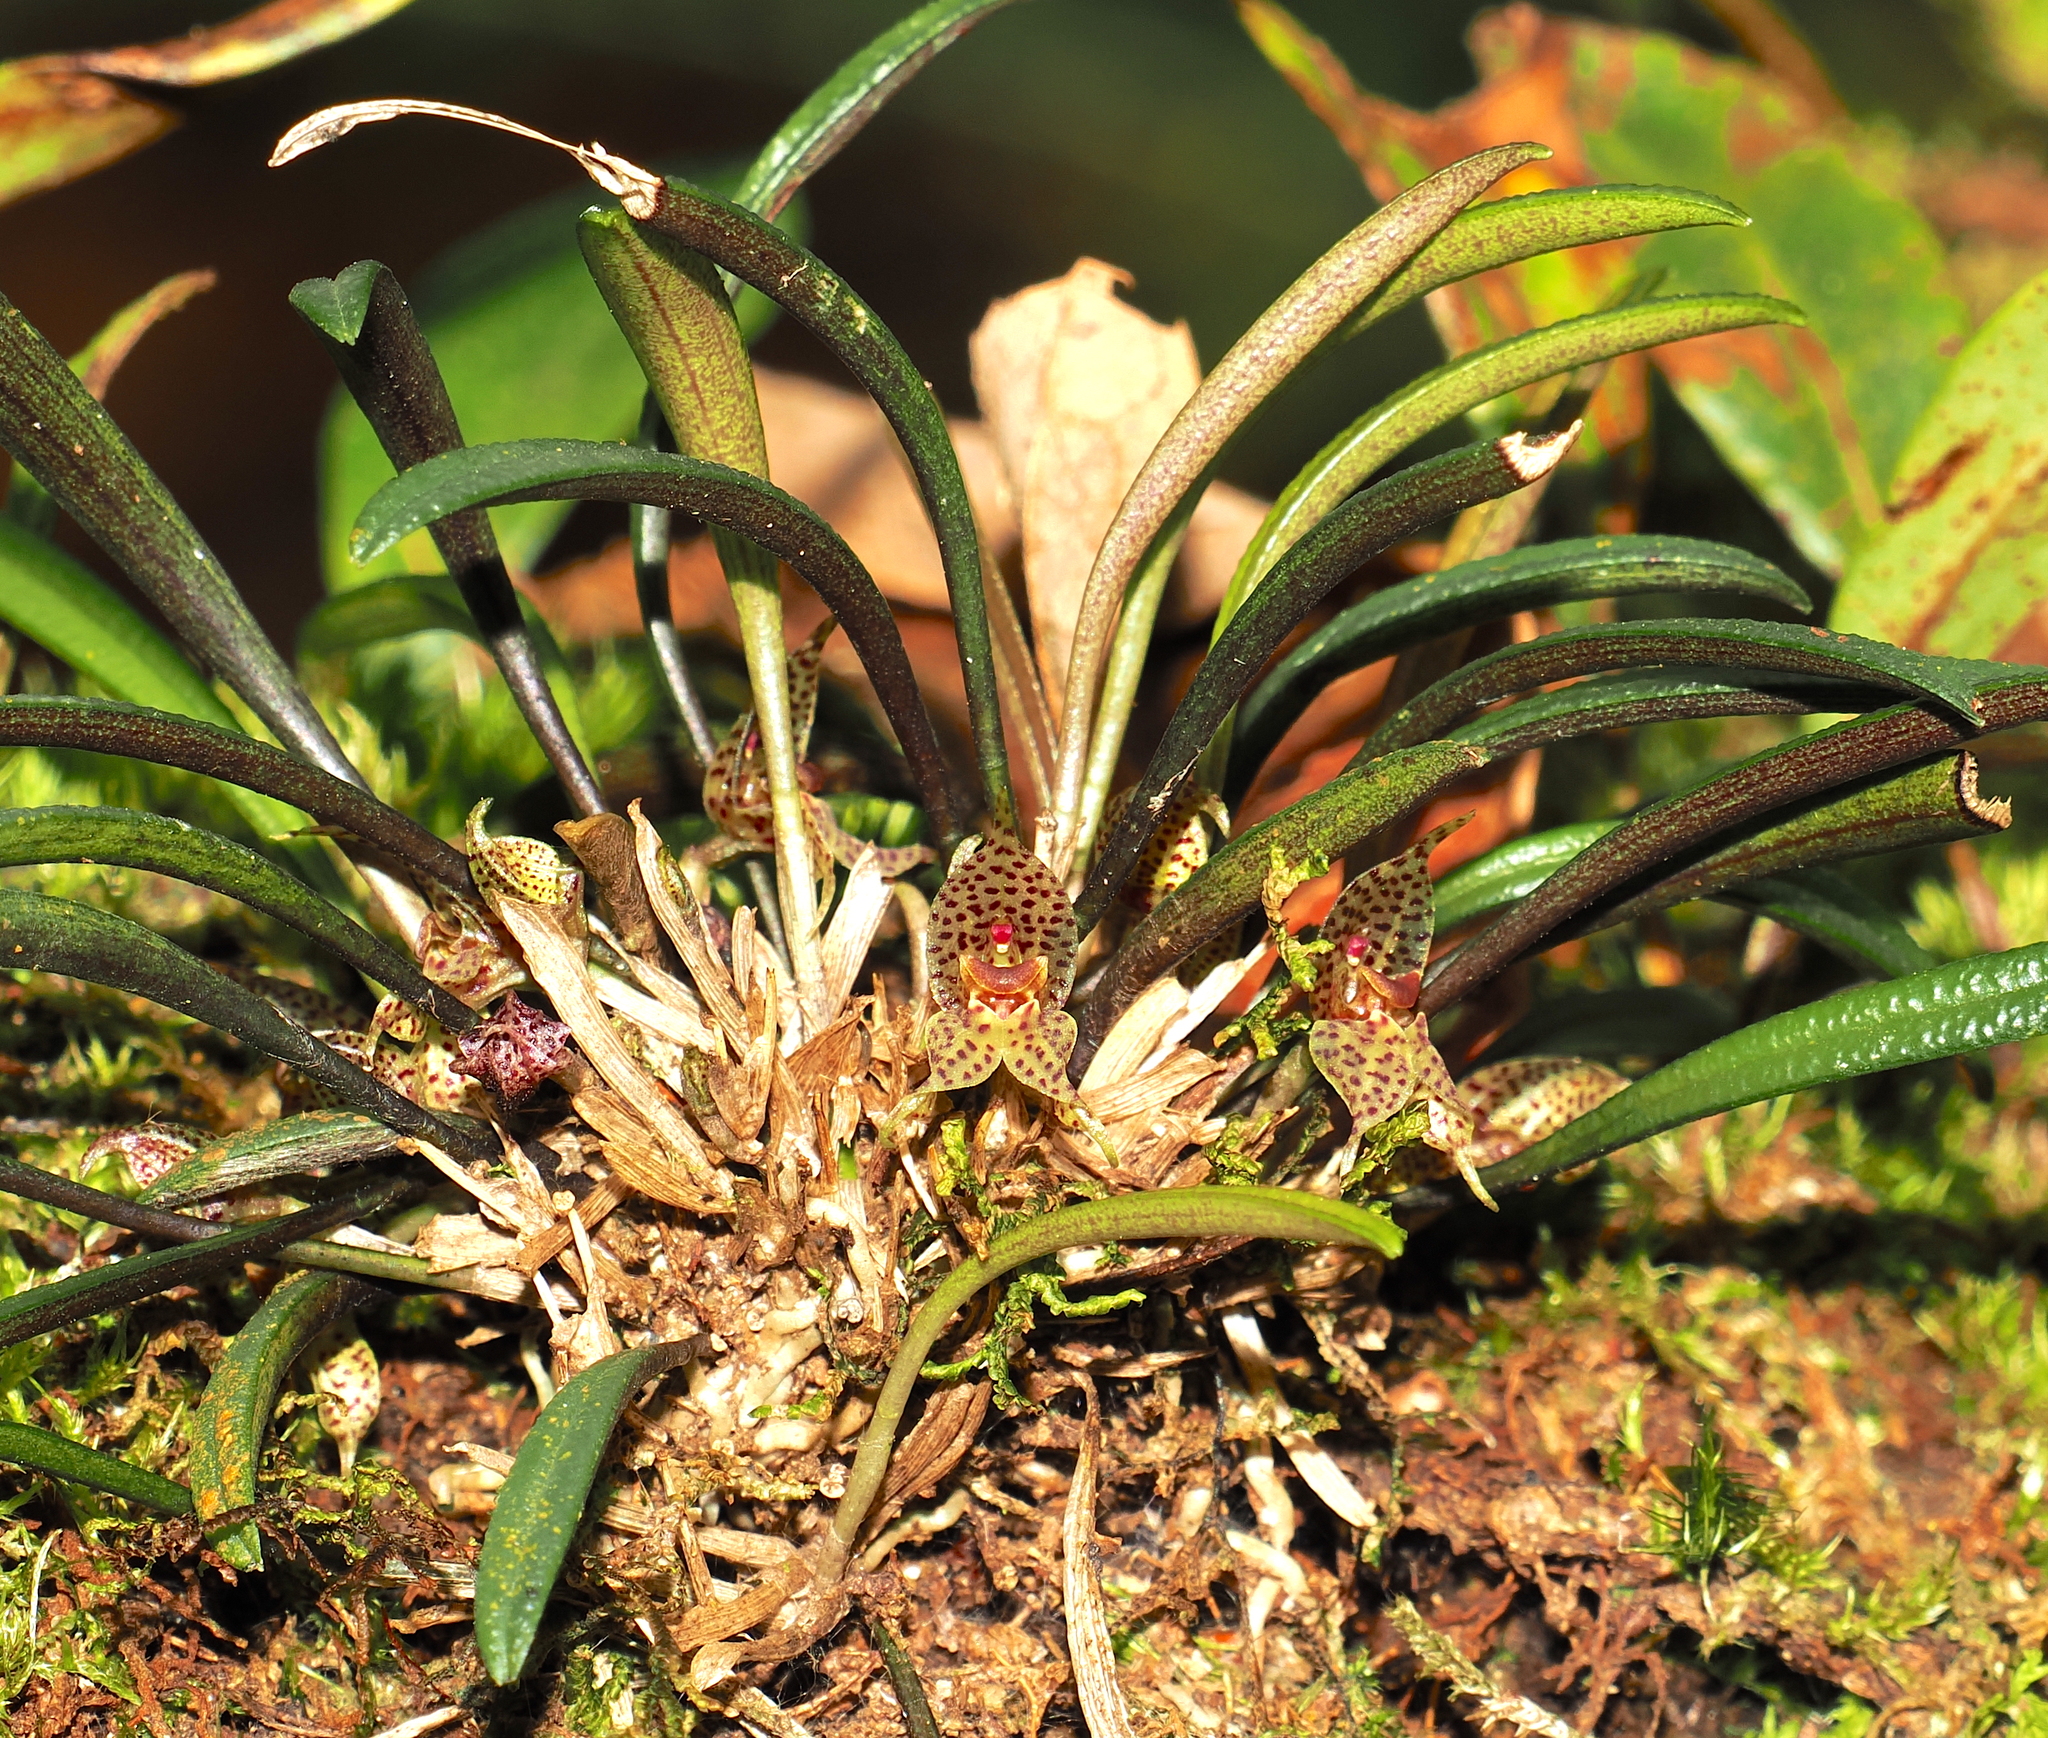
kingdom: Plantae
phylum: Tracheophyta
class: Liliopsida
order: Asparagales
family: Orchidaceae
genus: Dryadella
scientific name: Dryadella simula
